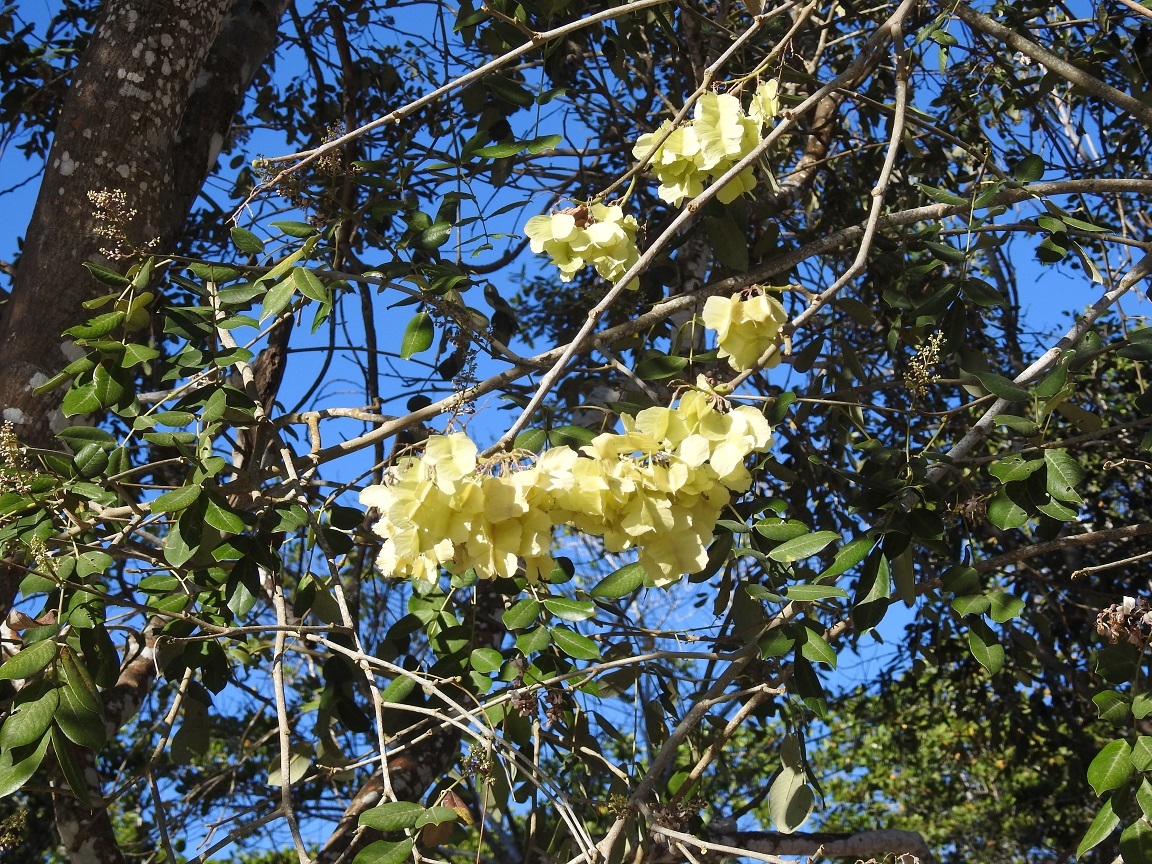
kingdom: Plantae
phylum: Tracheophyta
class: Magnoliopsida
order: Fabales
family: Fabaceae
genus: Piscidia
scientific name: Piscidia piscipula
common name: Florida fishpoison tree
